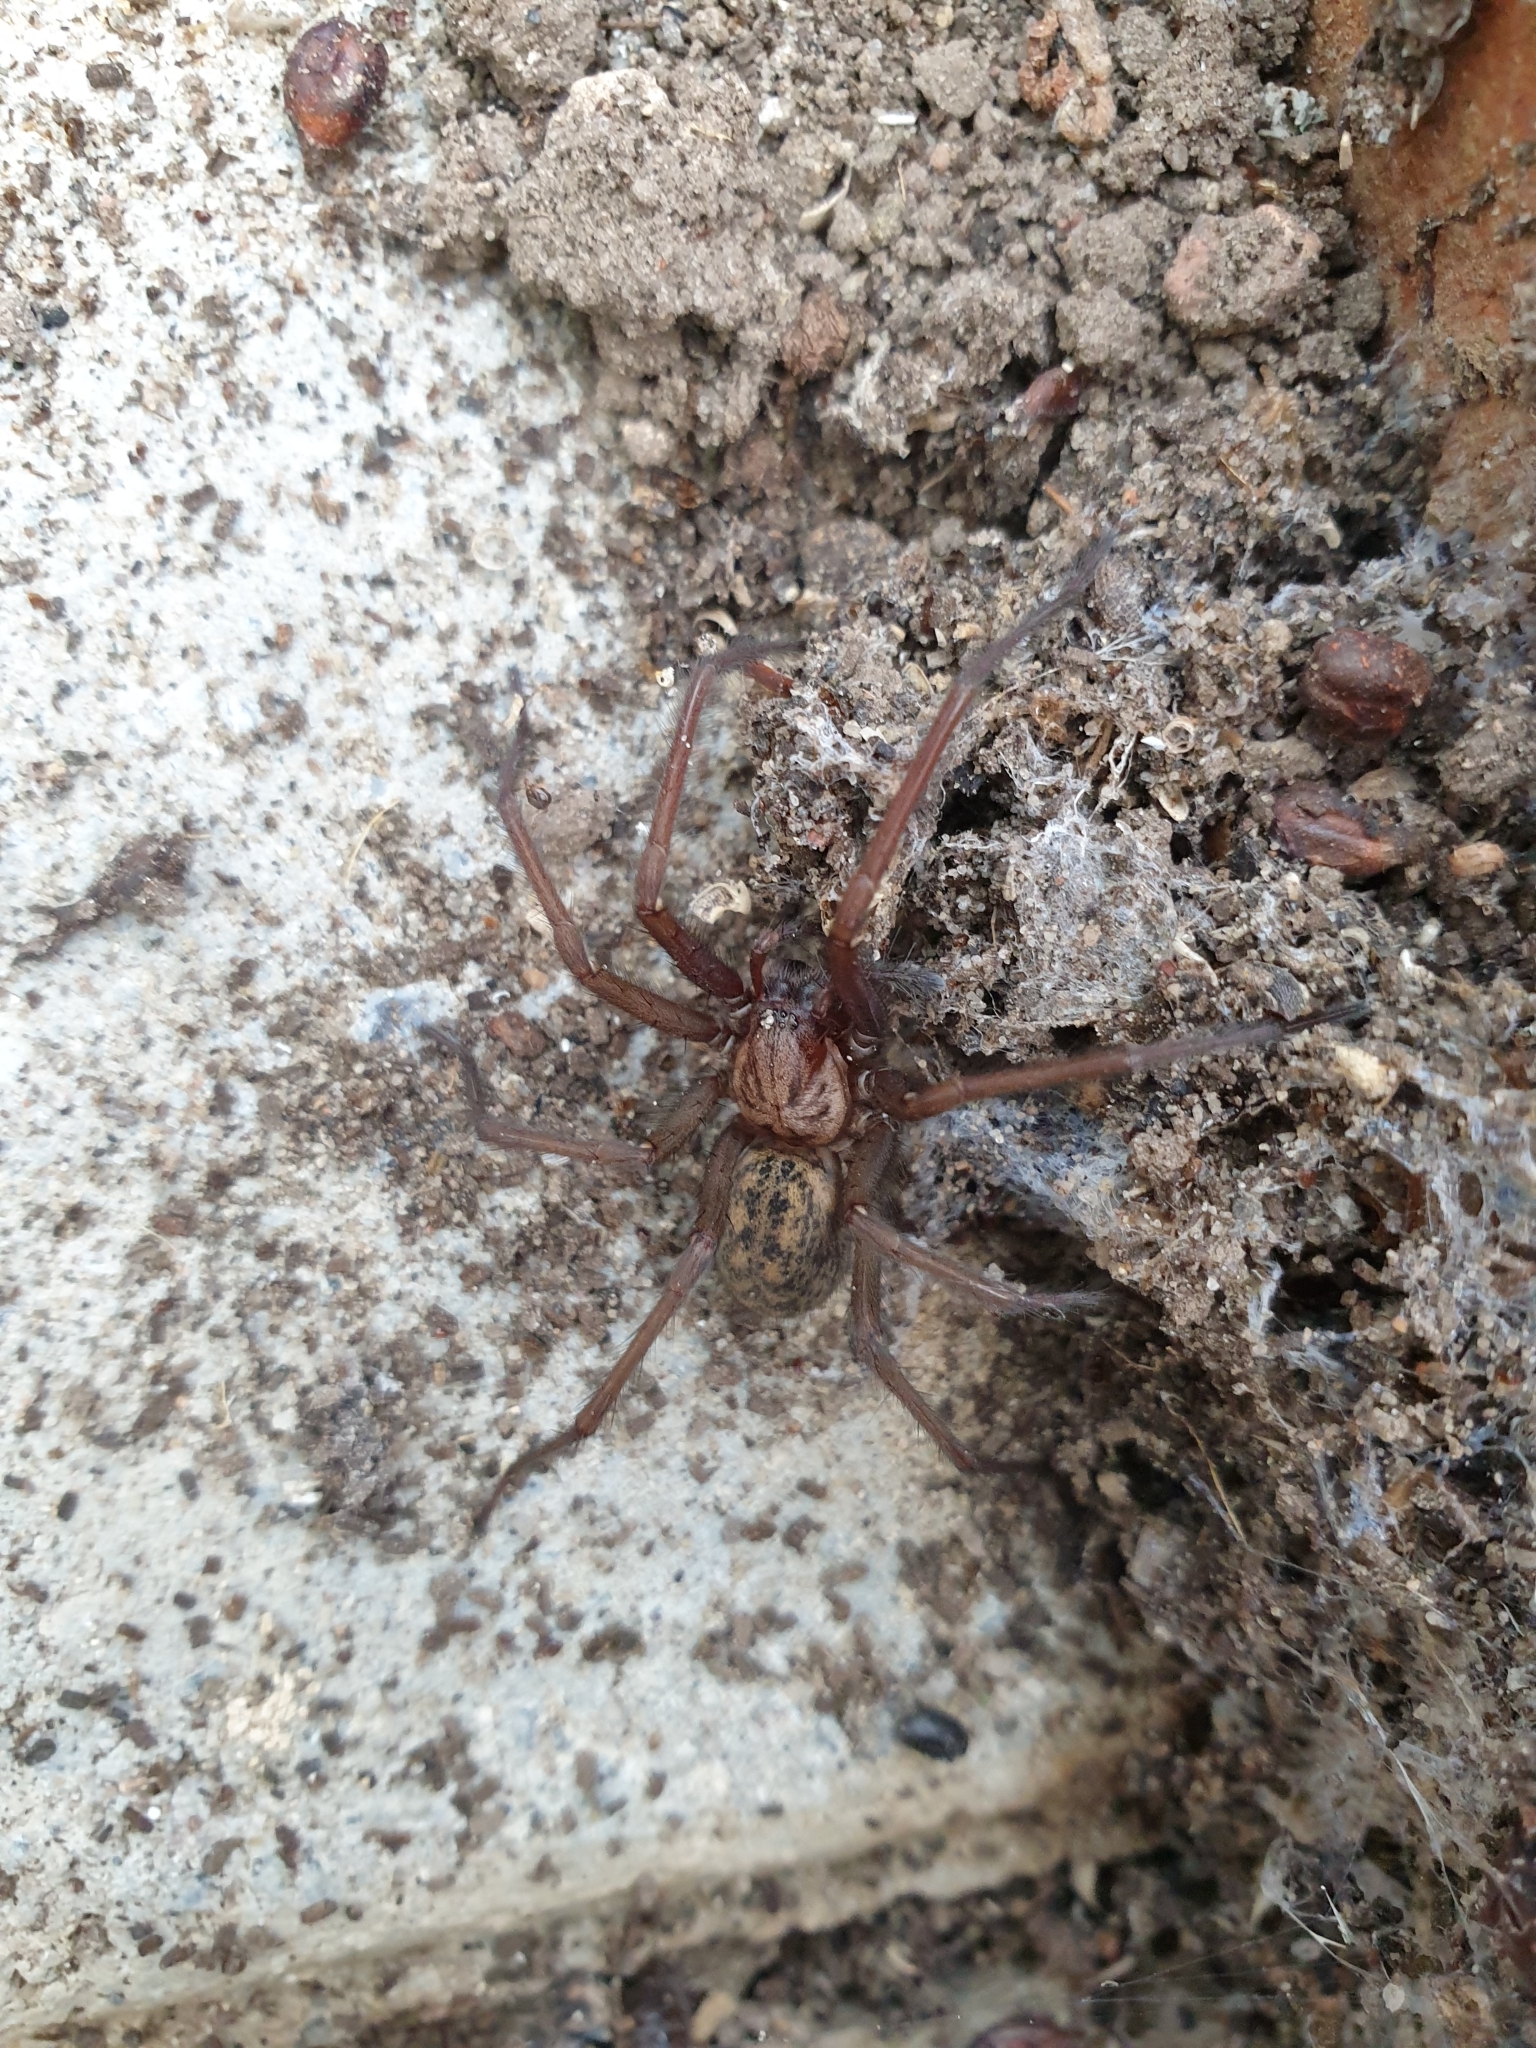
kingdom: Animalia
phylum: Arthropoda
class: Arachnida
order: Araneae
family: Agelenidae
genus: Eratigena
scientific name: Eratigena atrica
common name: Giant house spider
